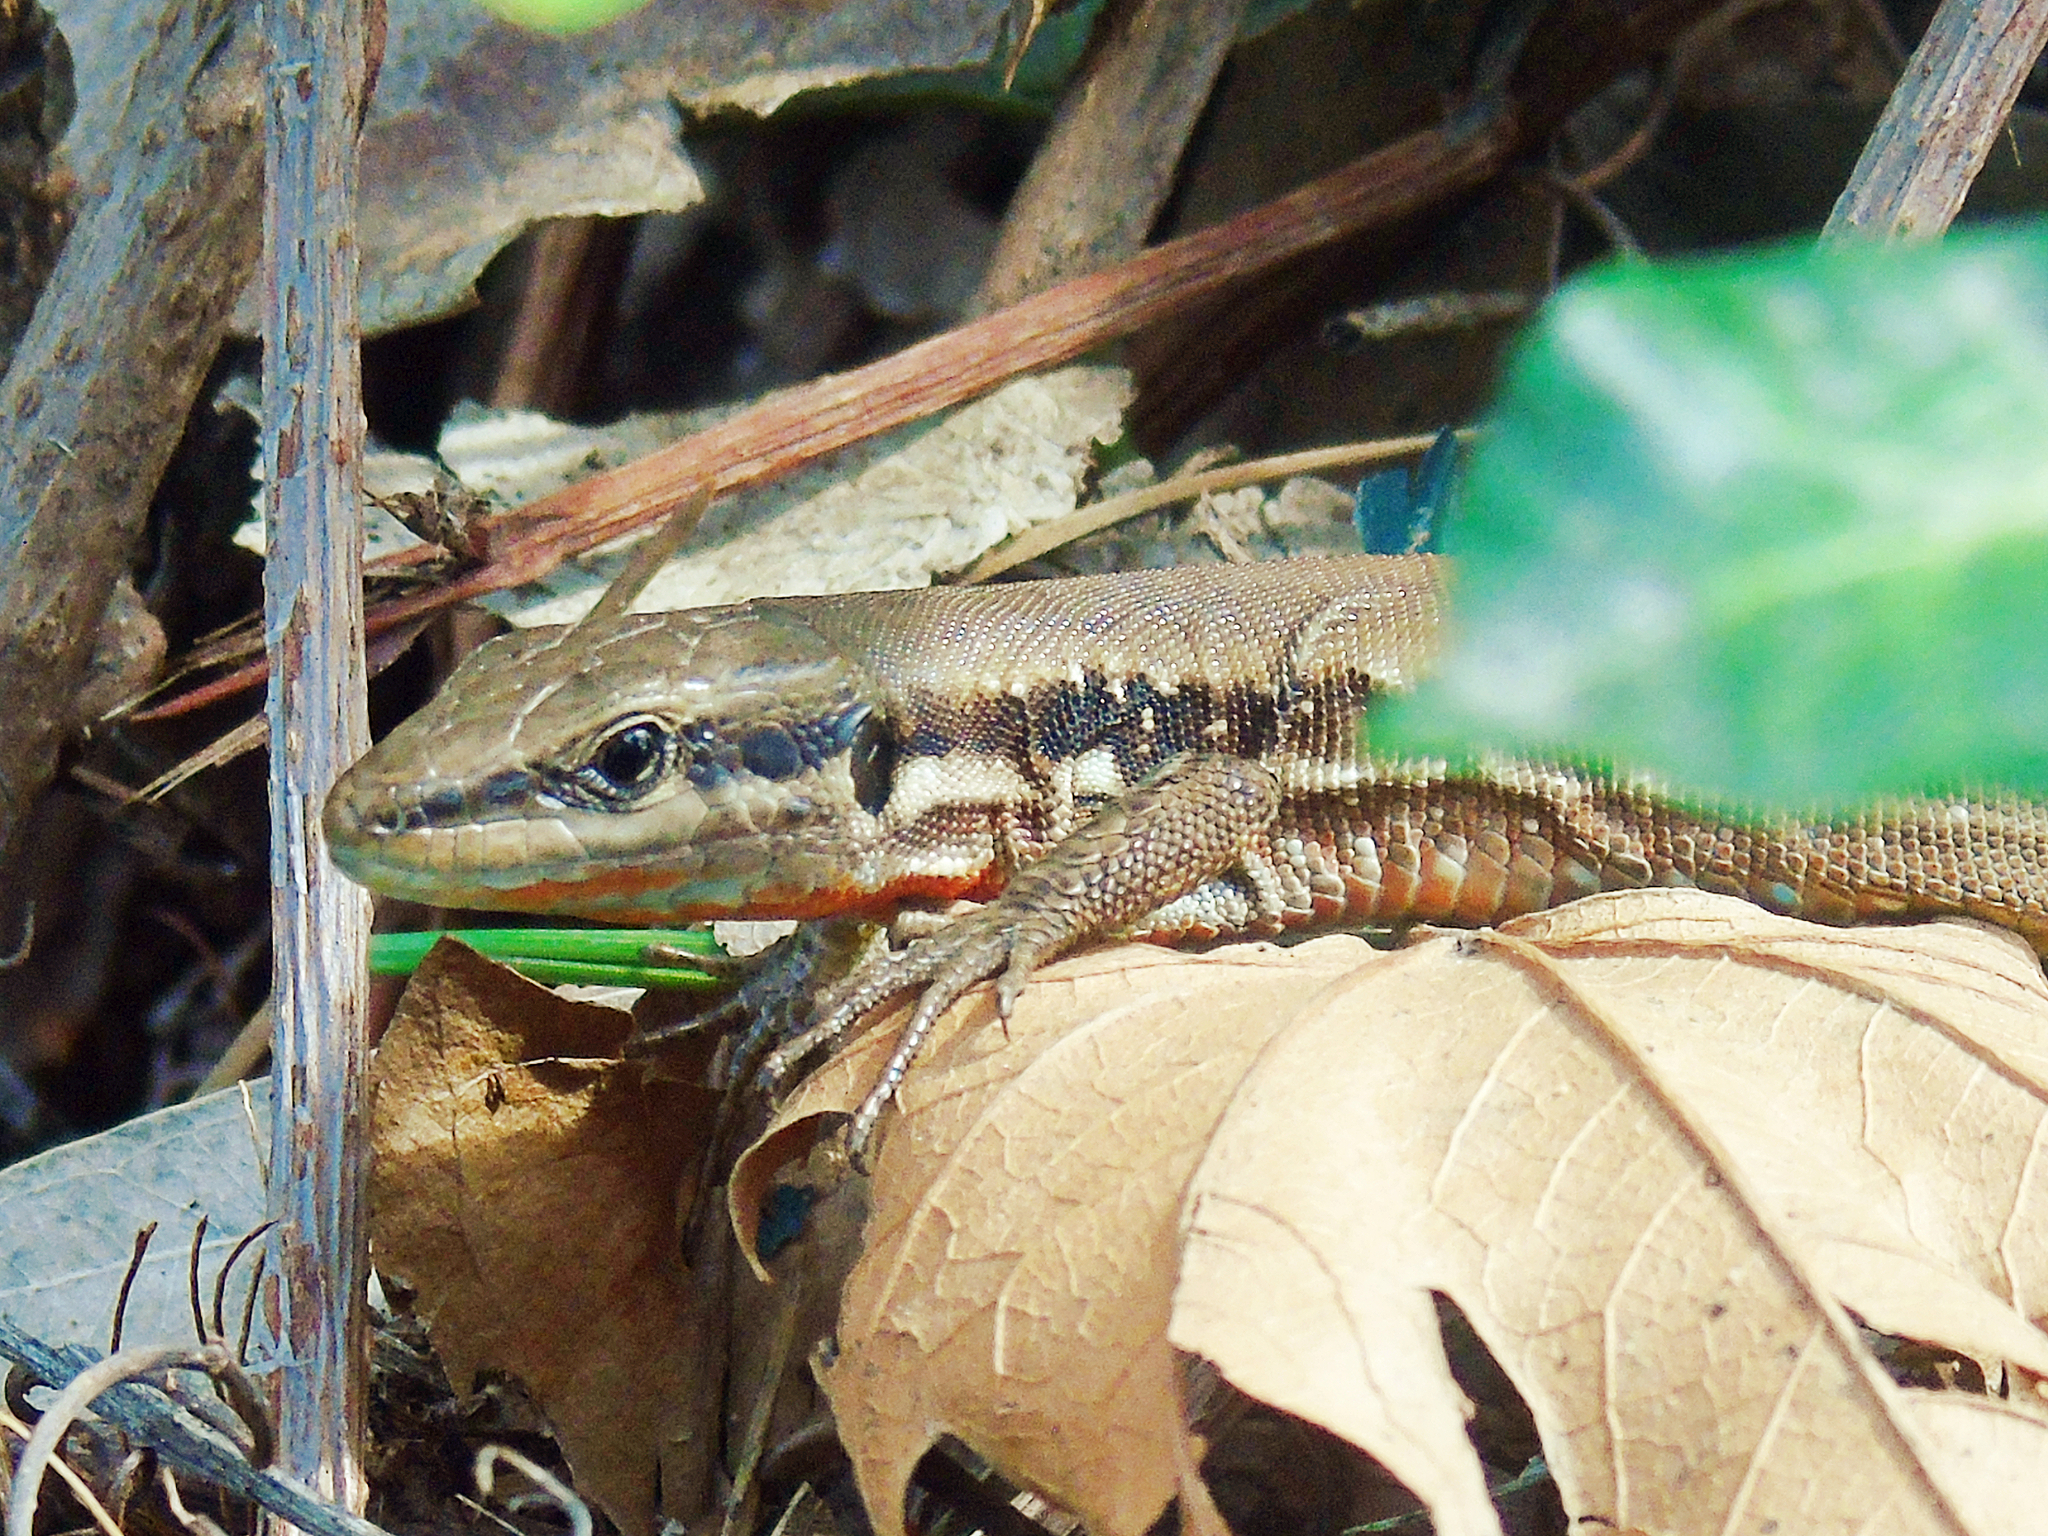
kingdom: Animalia
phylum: Chordata
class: Squamata
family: Lacertidae
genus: Phoenicolacerta
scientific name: Phoenicolacerta laevis
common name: Lebanon lizard
